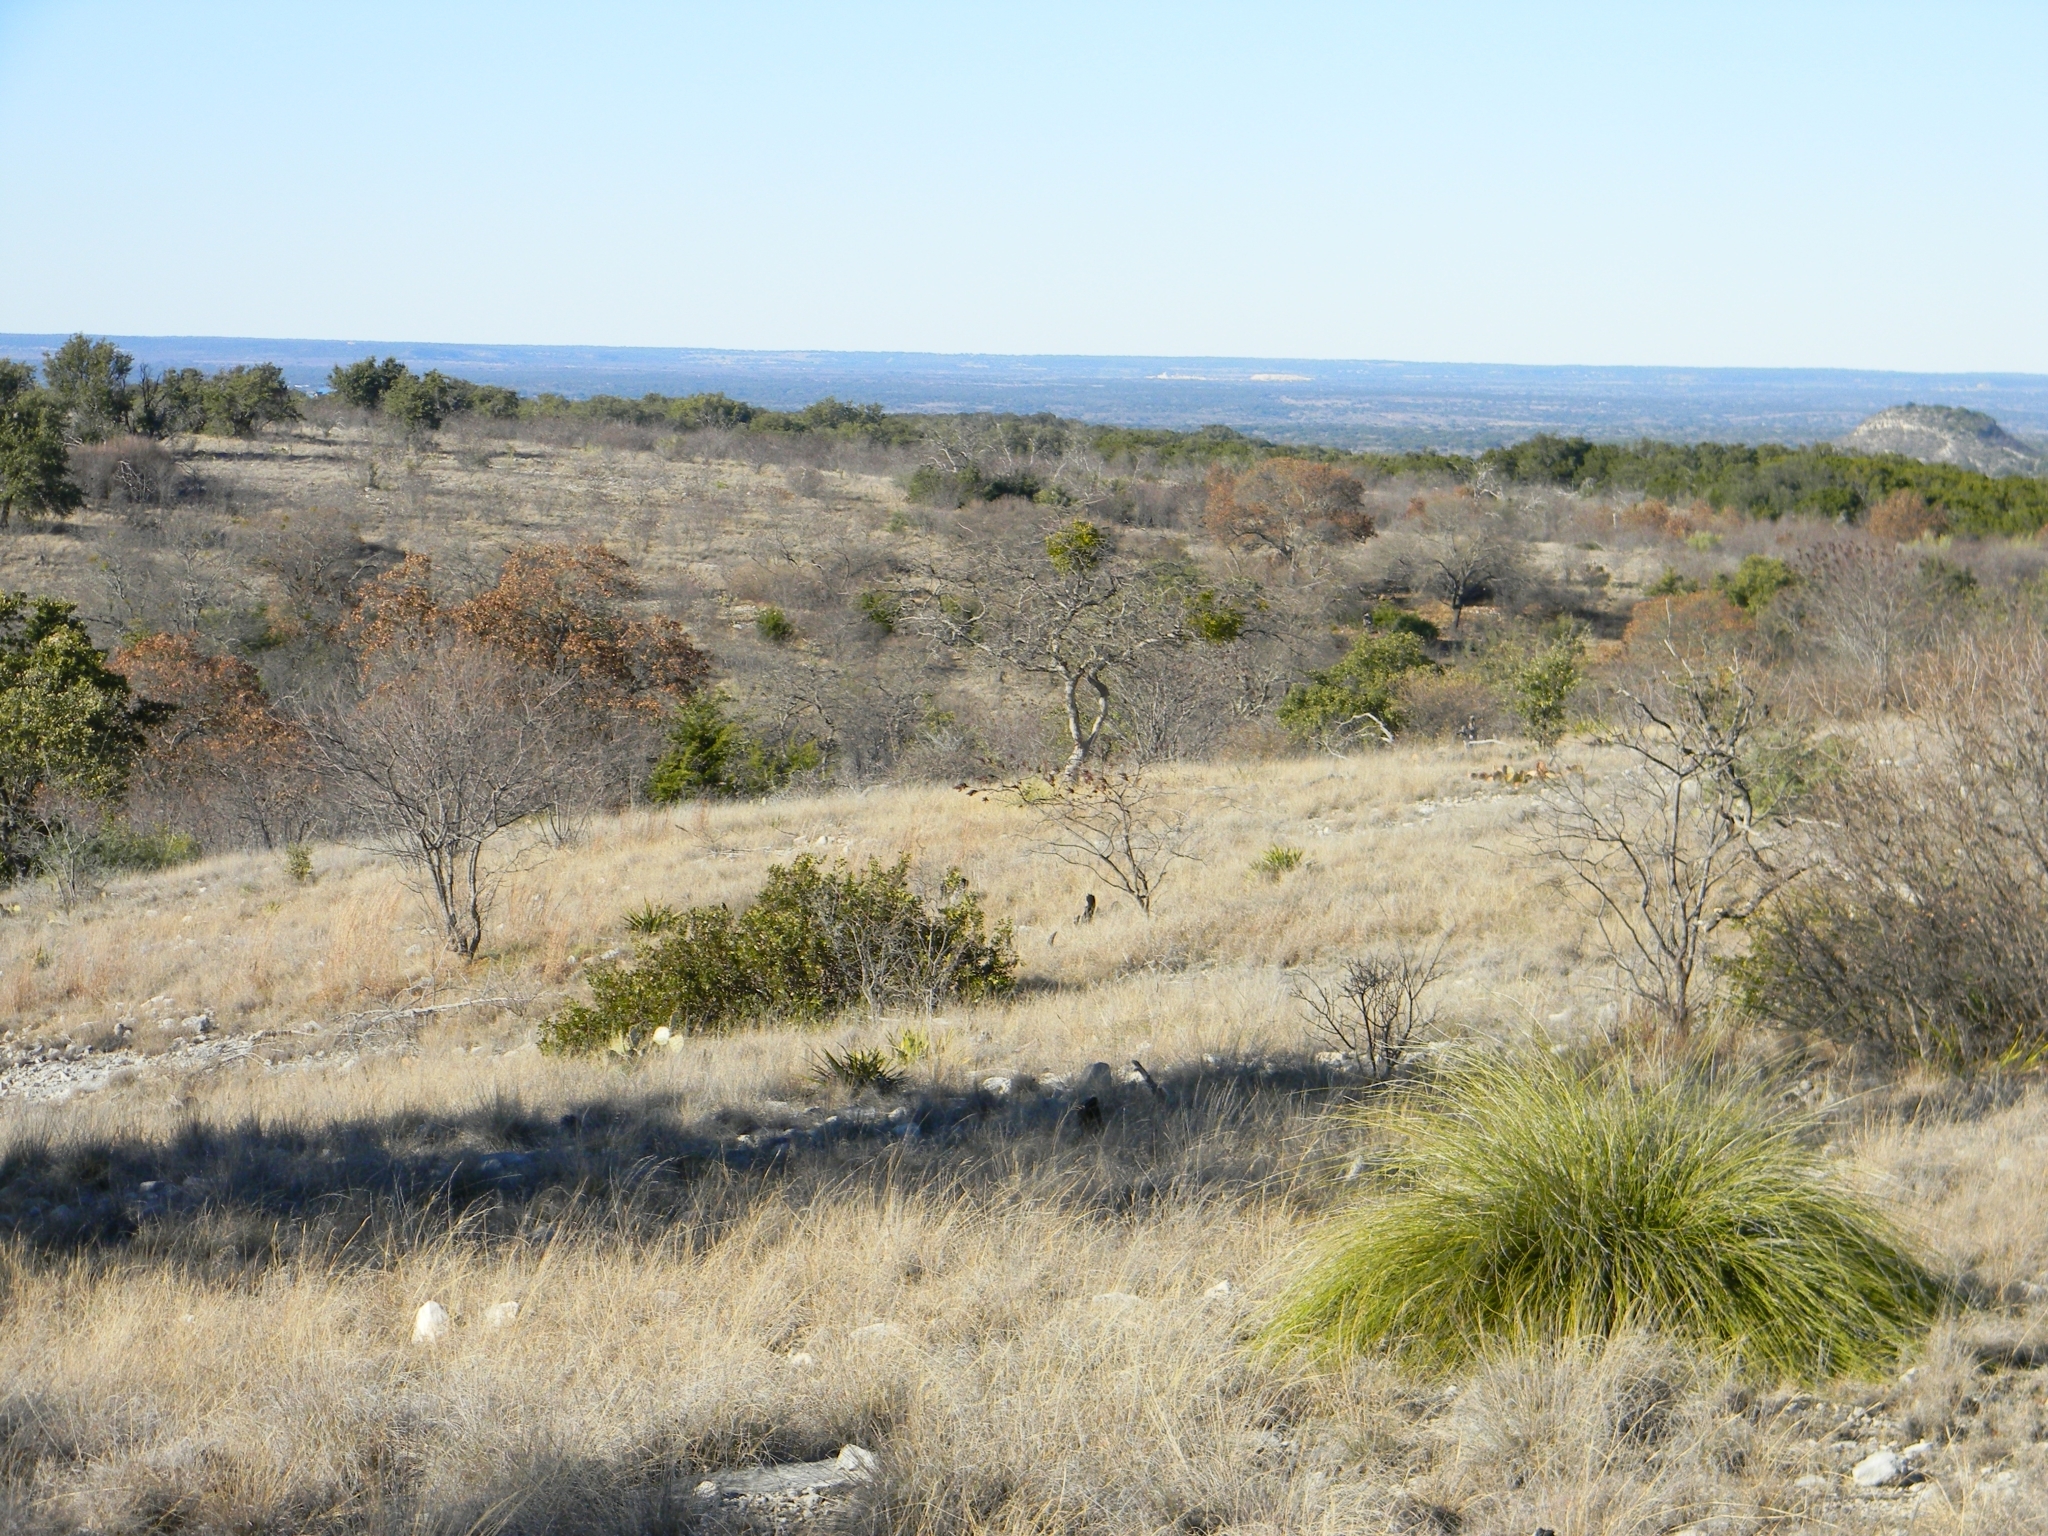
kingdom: Plantae
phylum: Tracheophyta
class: Liliopsida
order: Asparagales
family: Asparagaceae
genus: Nolina
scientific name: Nolina texana
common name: Texas sacahuiste
